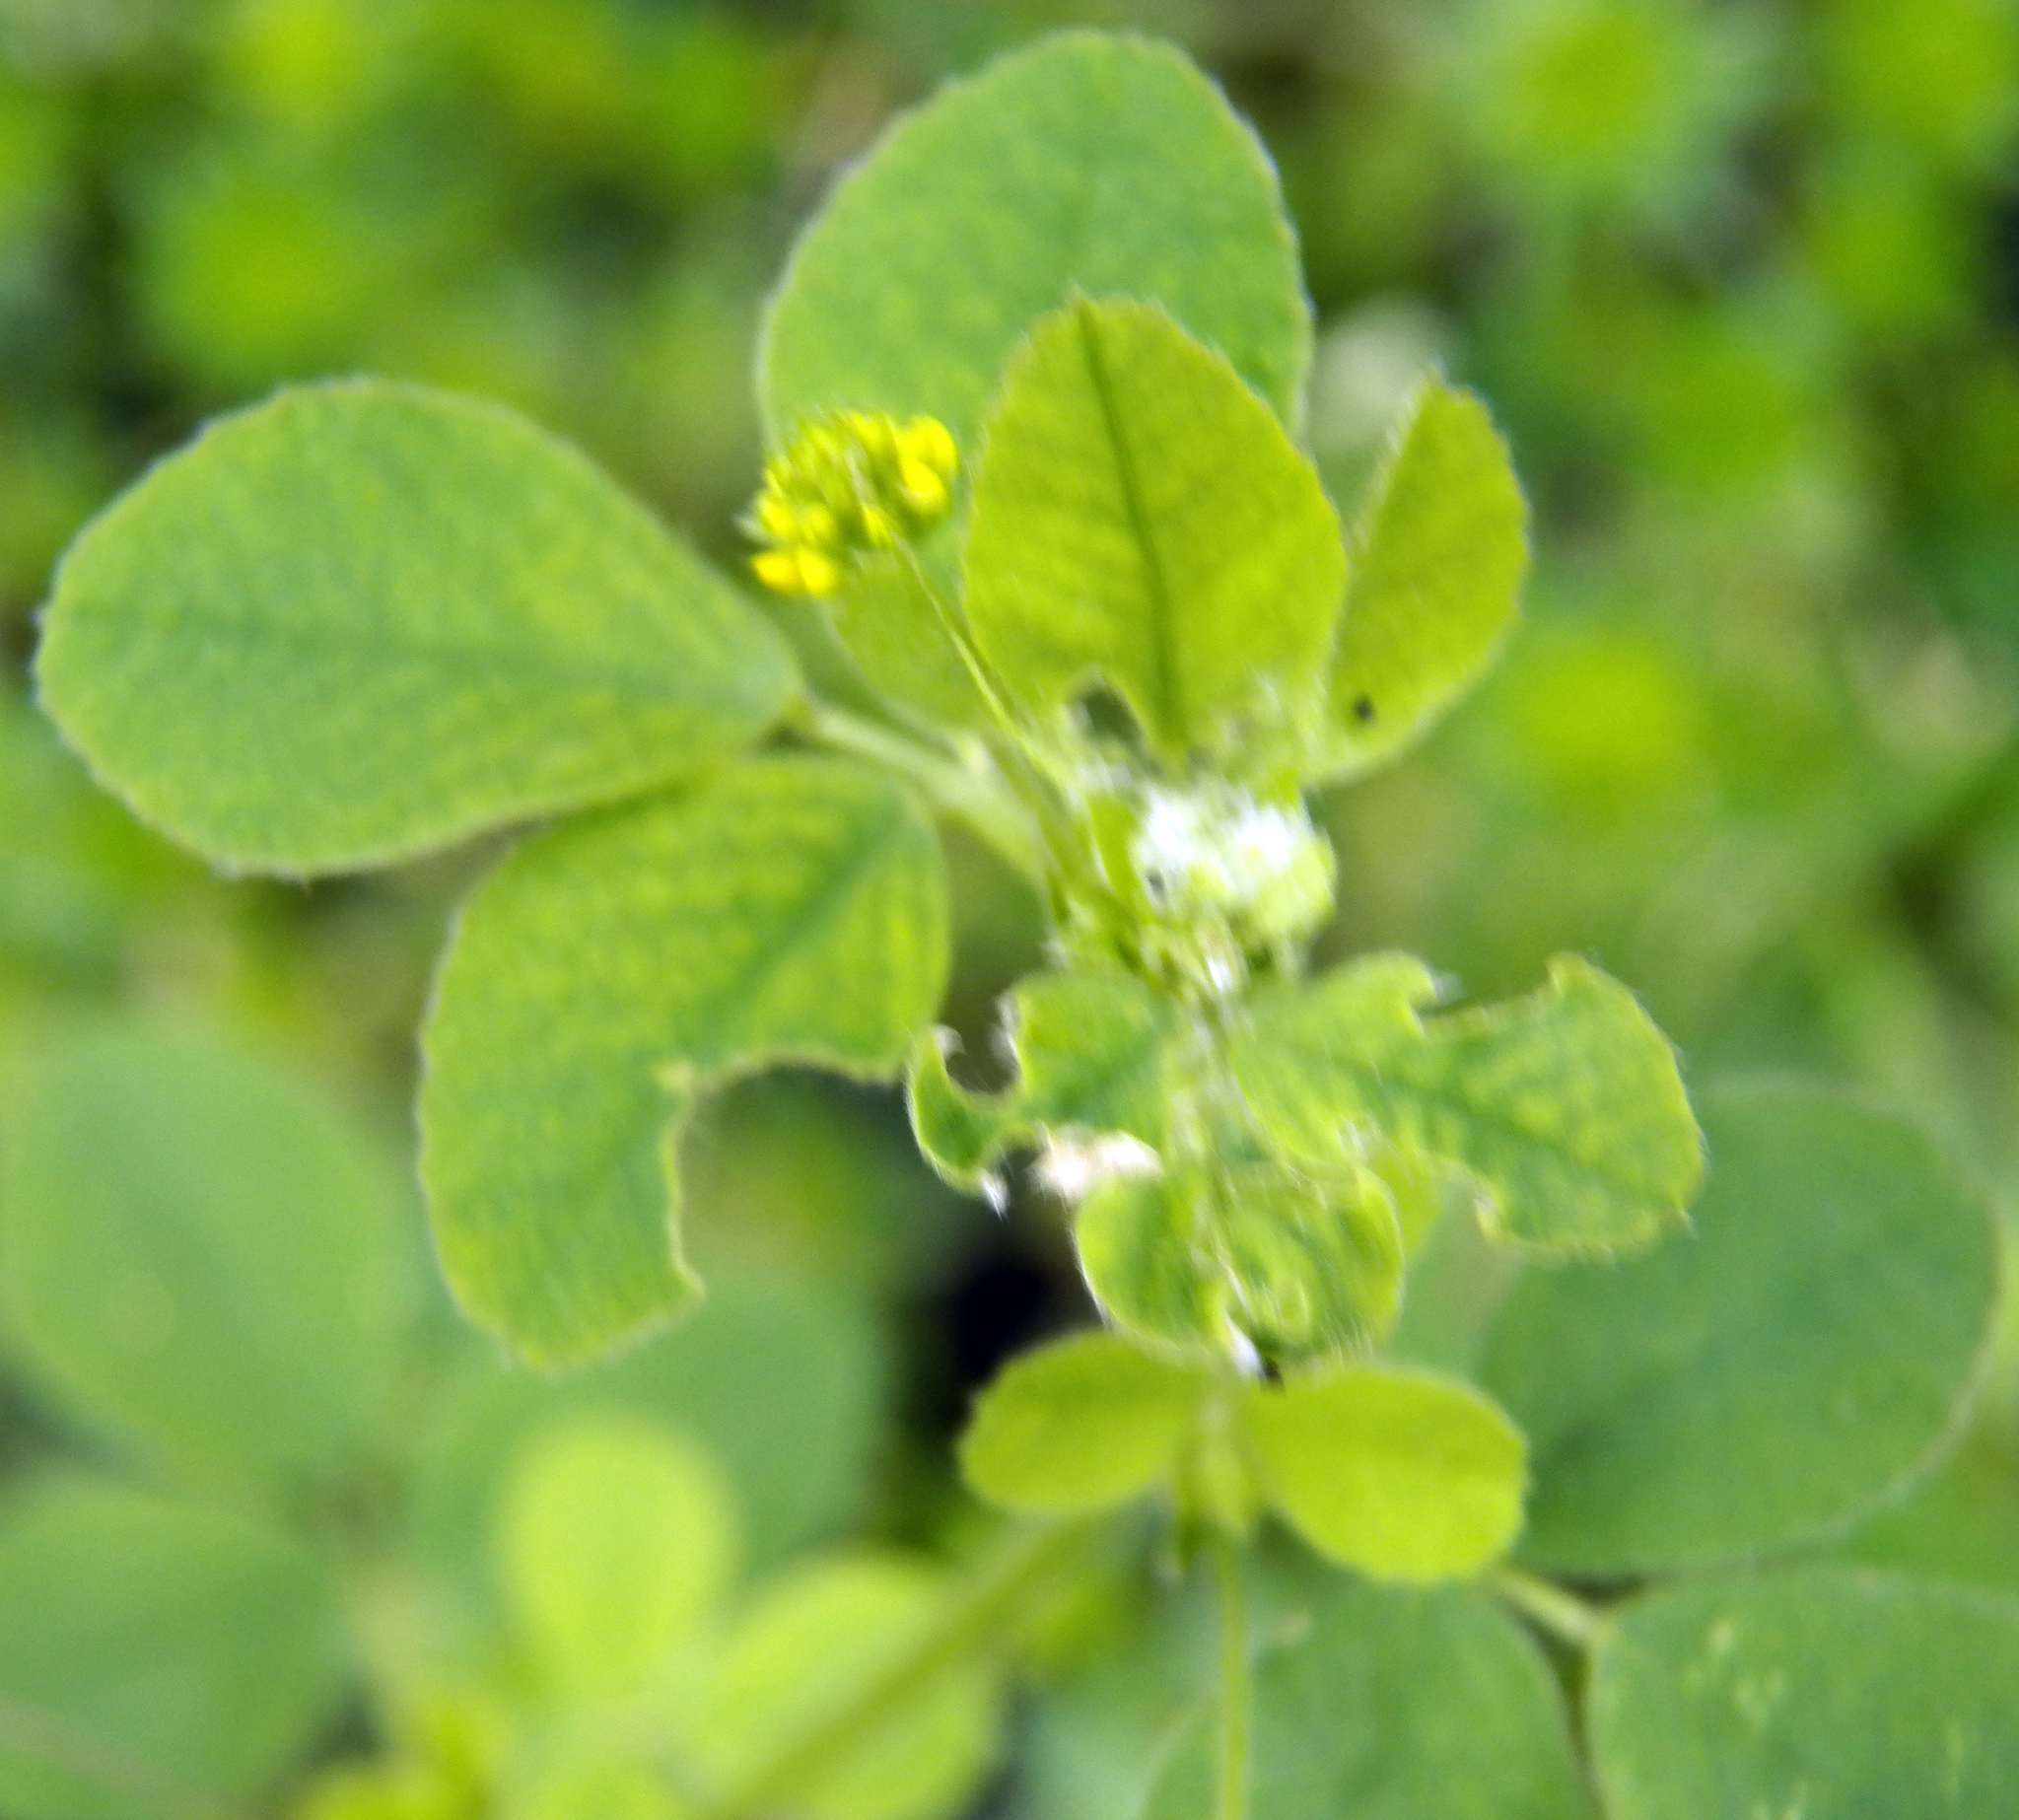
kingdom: Plantae
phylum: Tracheophyta
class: Magnoliopsida
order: Fabales
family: Fabaceae
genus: Medicago
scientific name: Medicago lupulina
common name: Black medick
